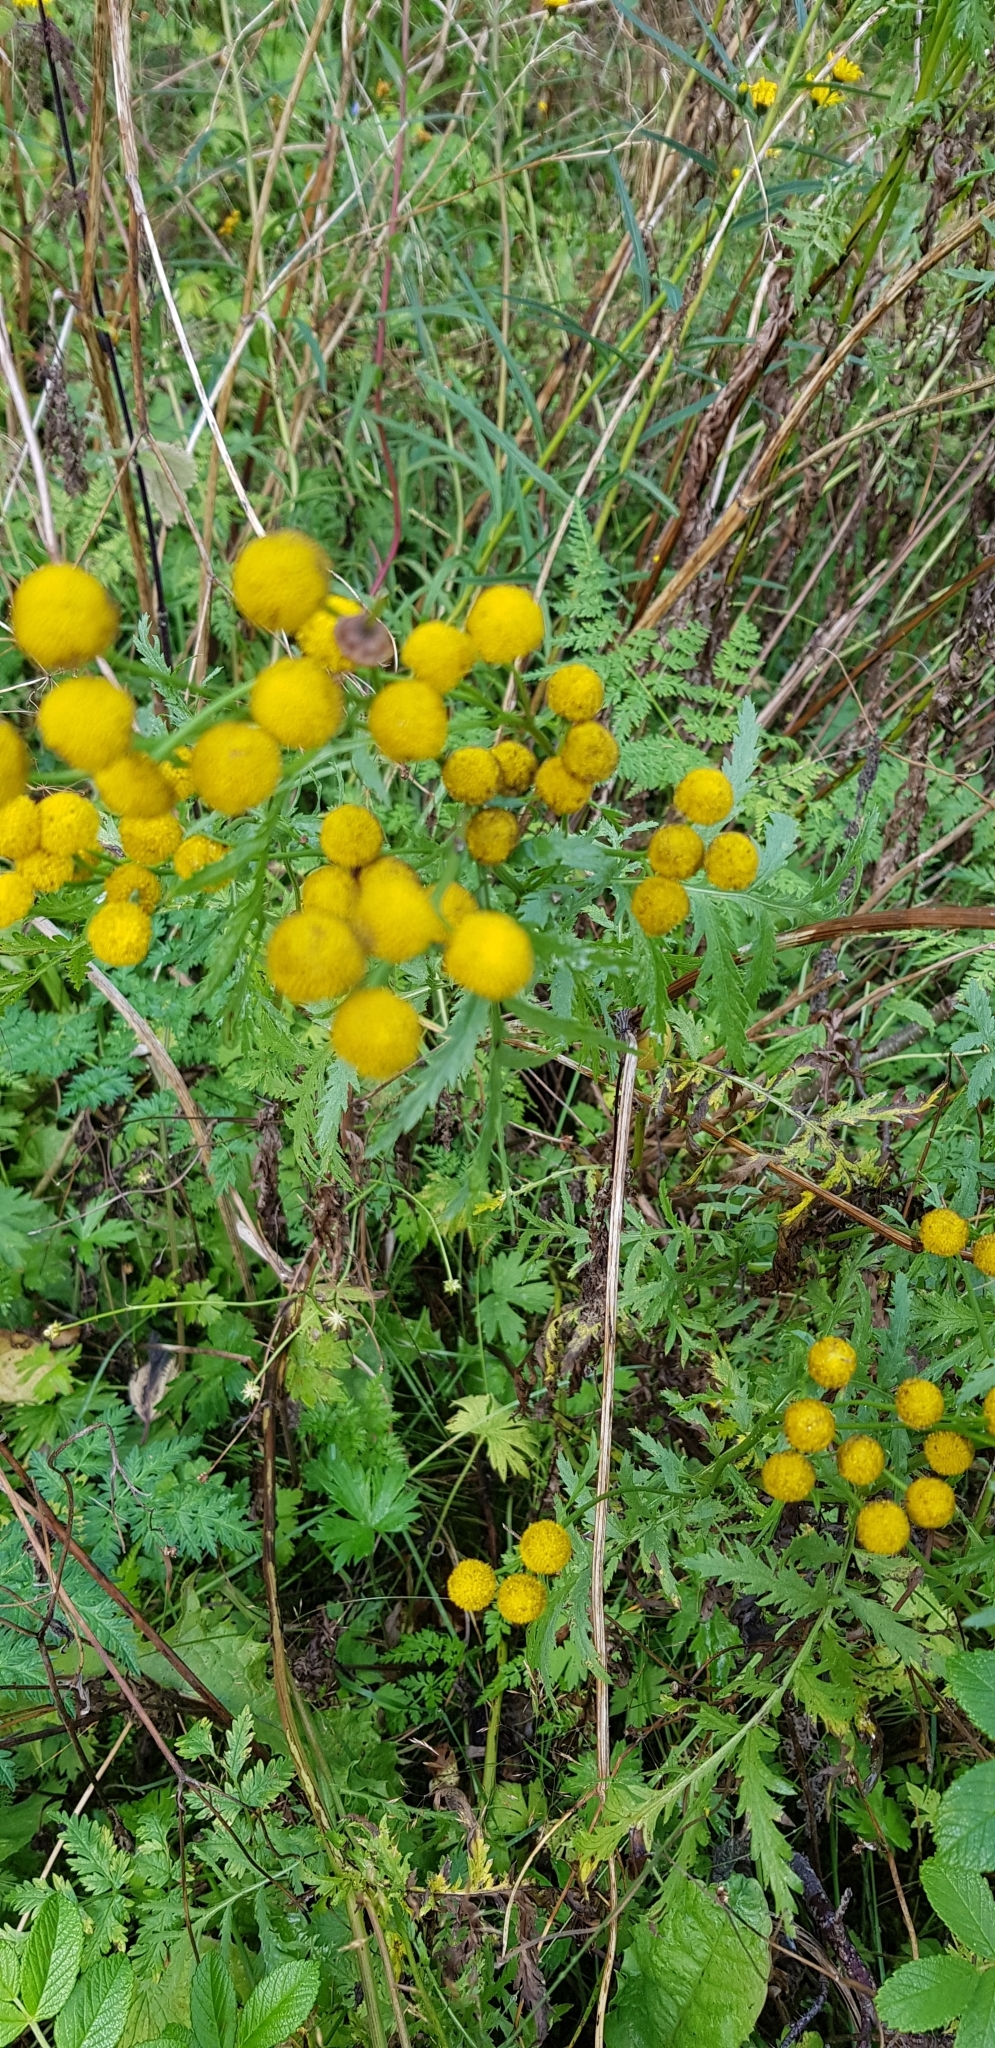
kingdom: Plantae
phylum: Tracheophyta
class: Magnoliopsida
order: Asterales
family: Asteraceae
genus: Tanacetum
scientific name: Tanacetum vulgare
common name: Common tansy
